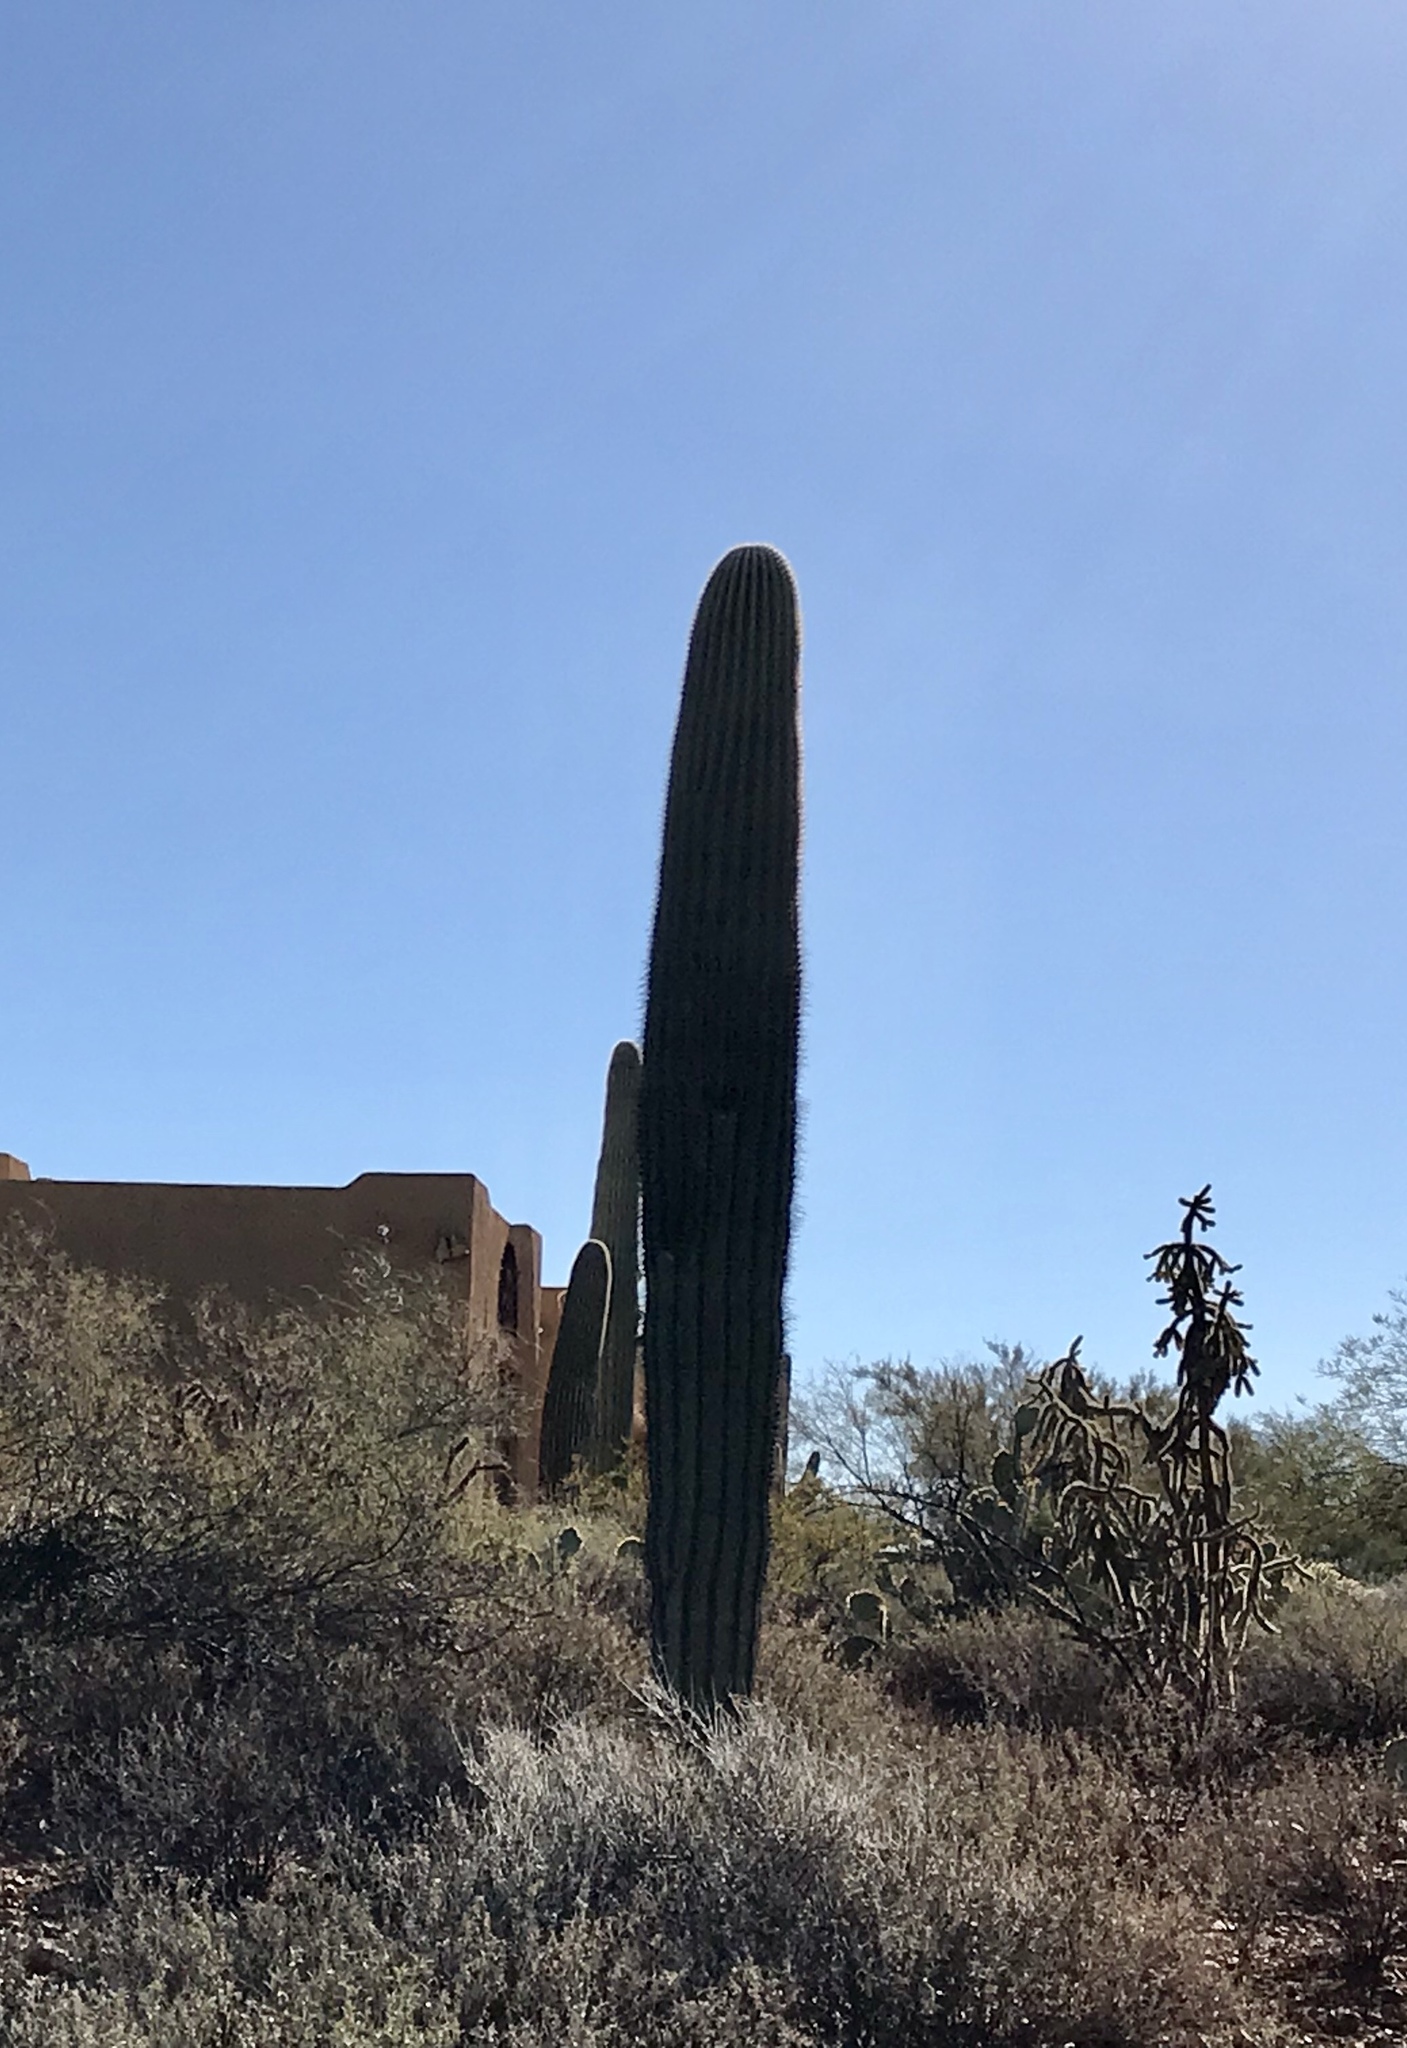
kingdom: Plantae
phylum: Tracheophyta
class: Magnoliopsida
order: Caryophyllales
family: Cactaceae
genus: Carnegiea
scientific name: Carnegiea gigantea
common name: Saguaro
